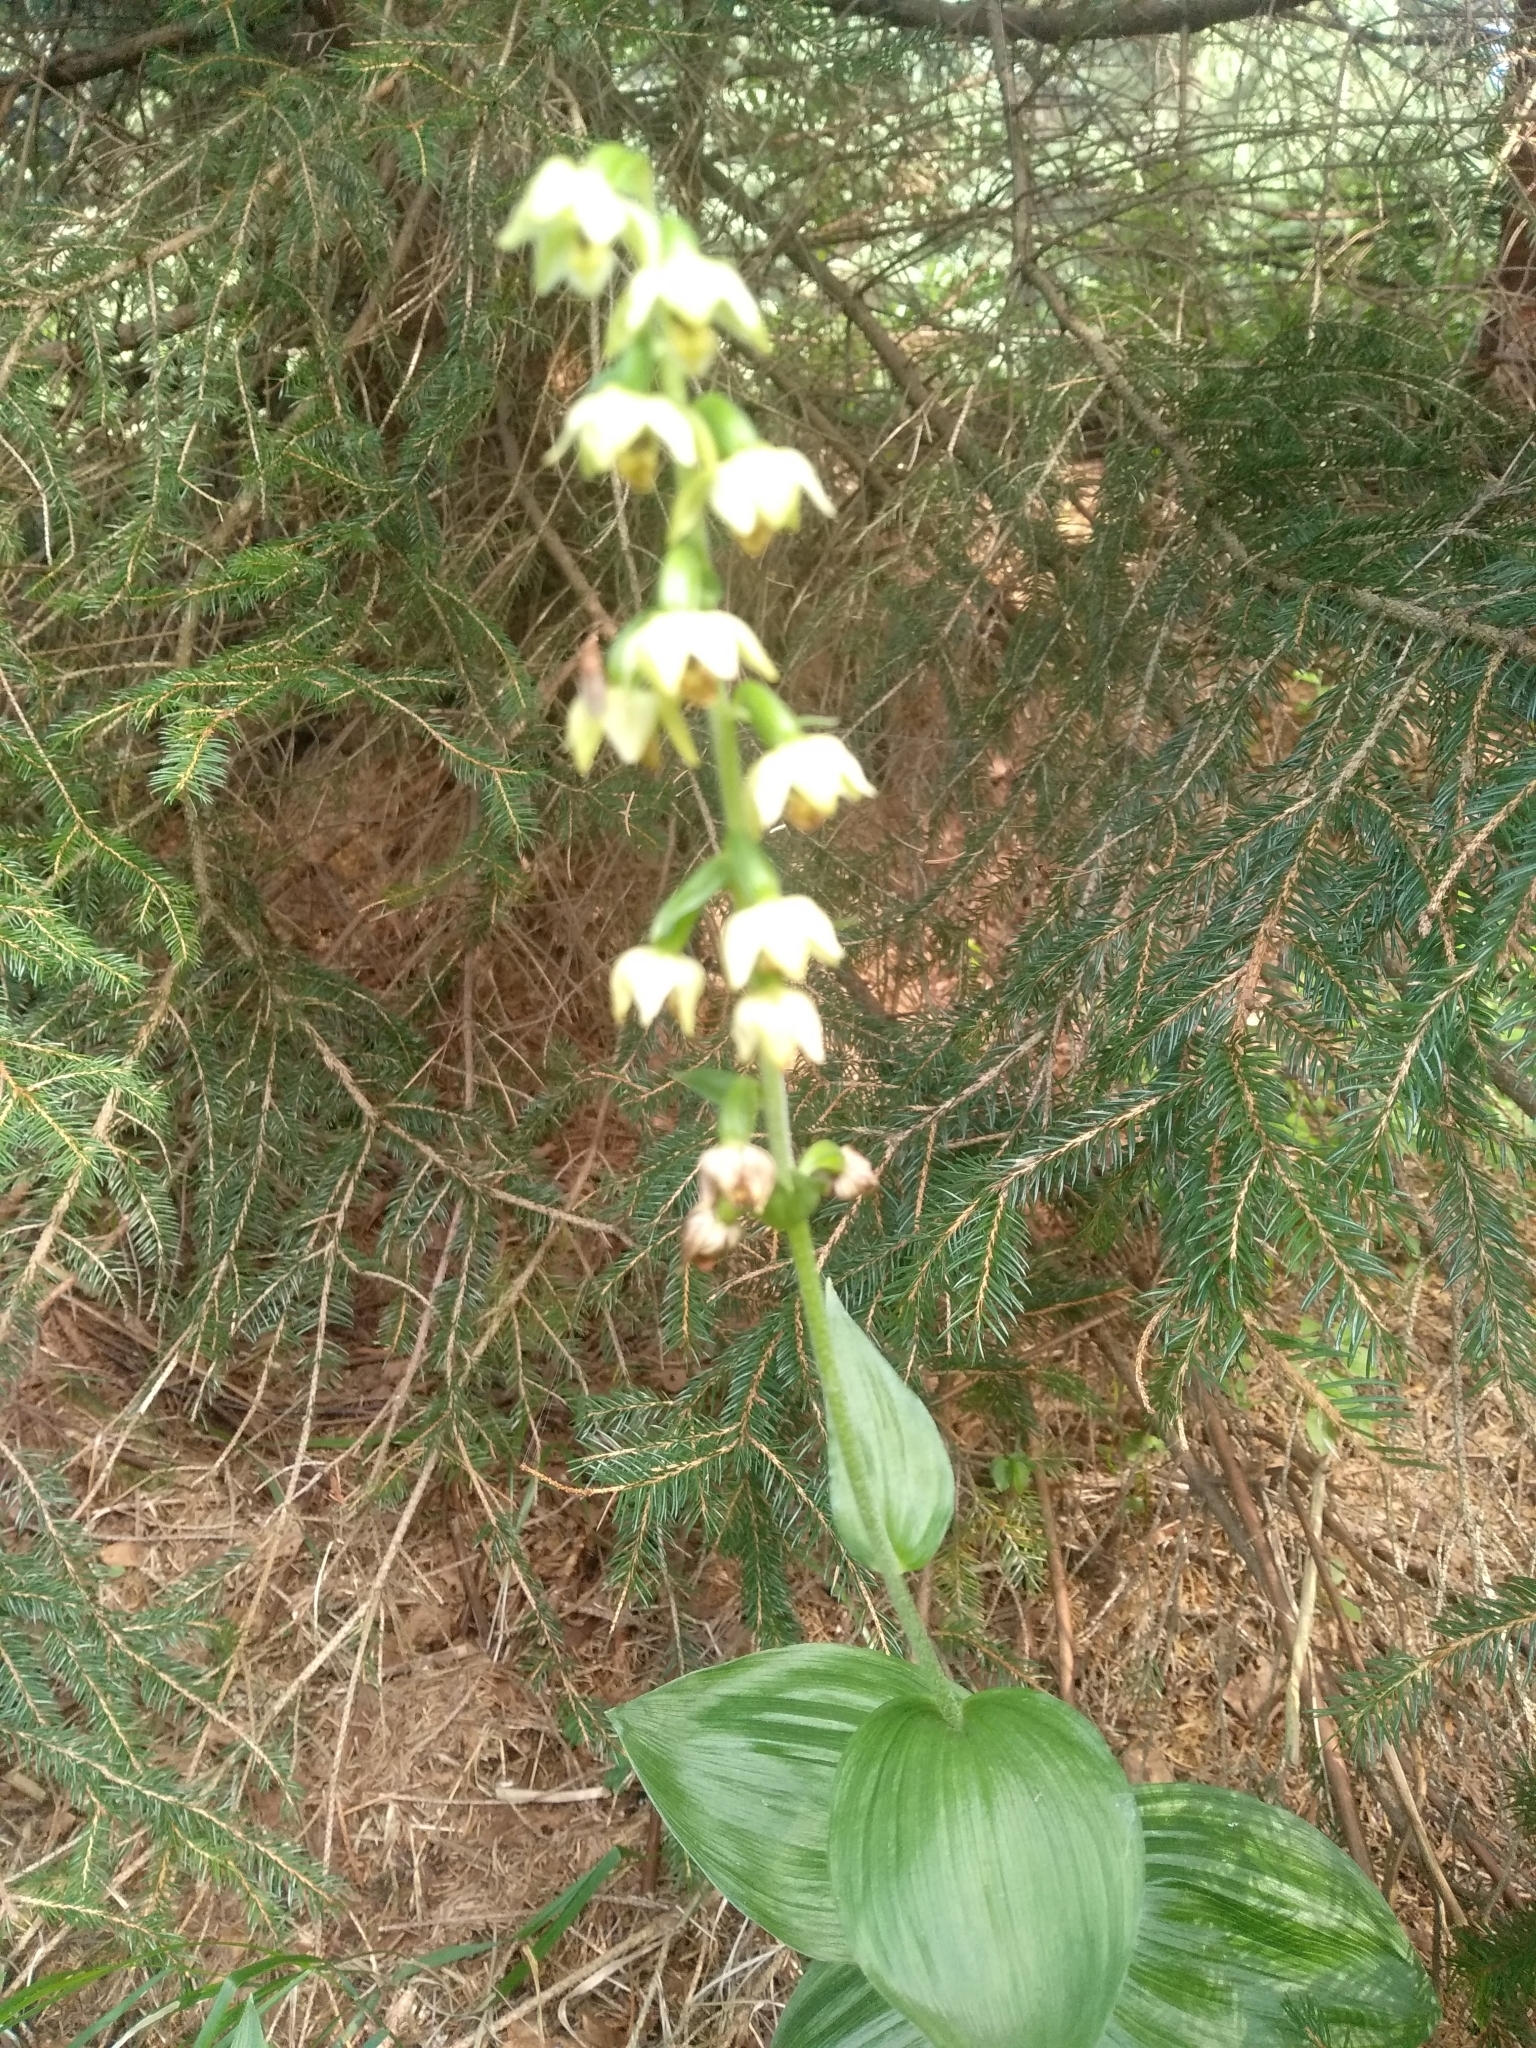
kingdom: Plantae
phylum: Tracheophyta
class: Liliopsida
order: Asparagales
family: Orchidaceae
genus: Epipactis
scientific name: Epipactis helleborine
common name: Broad-leaved helleborine
